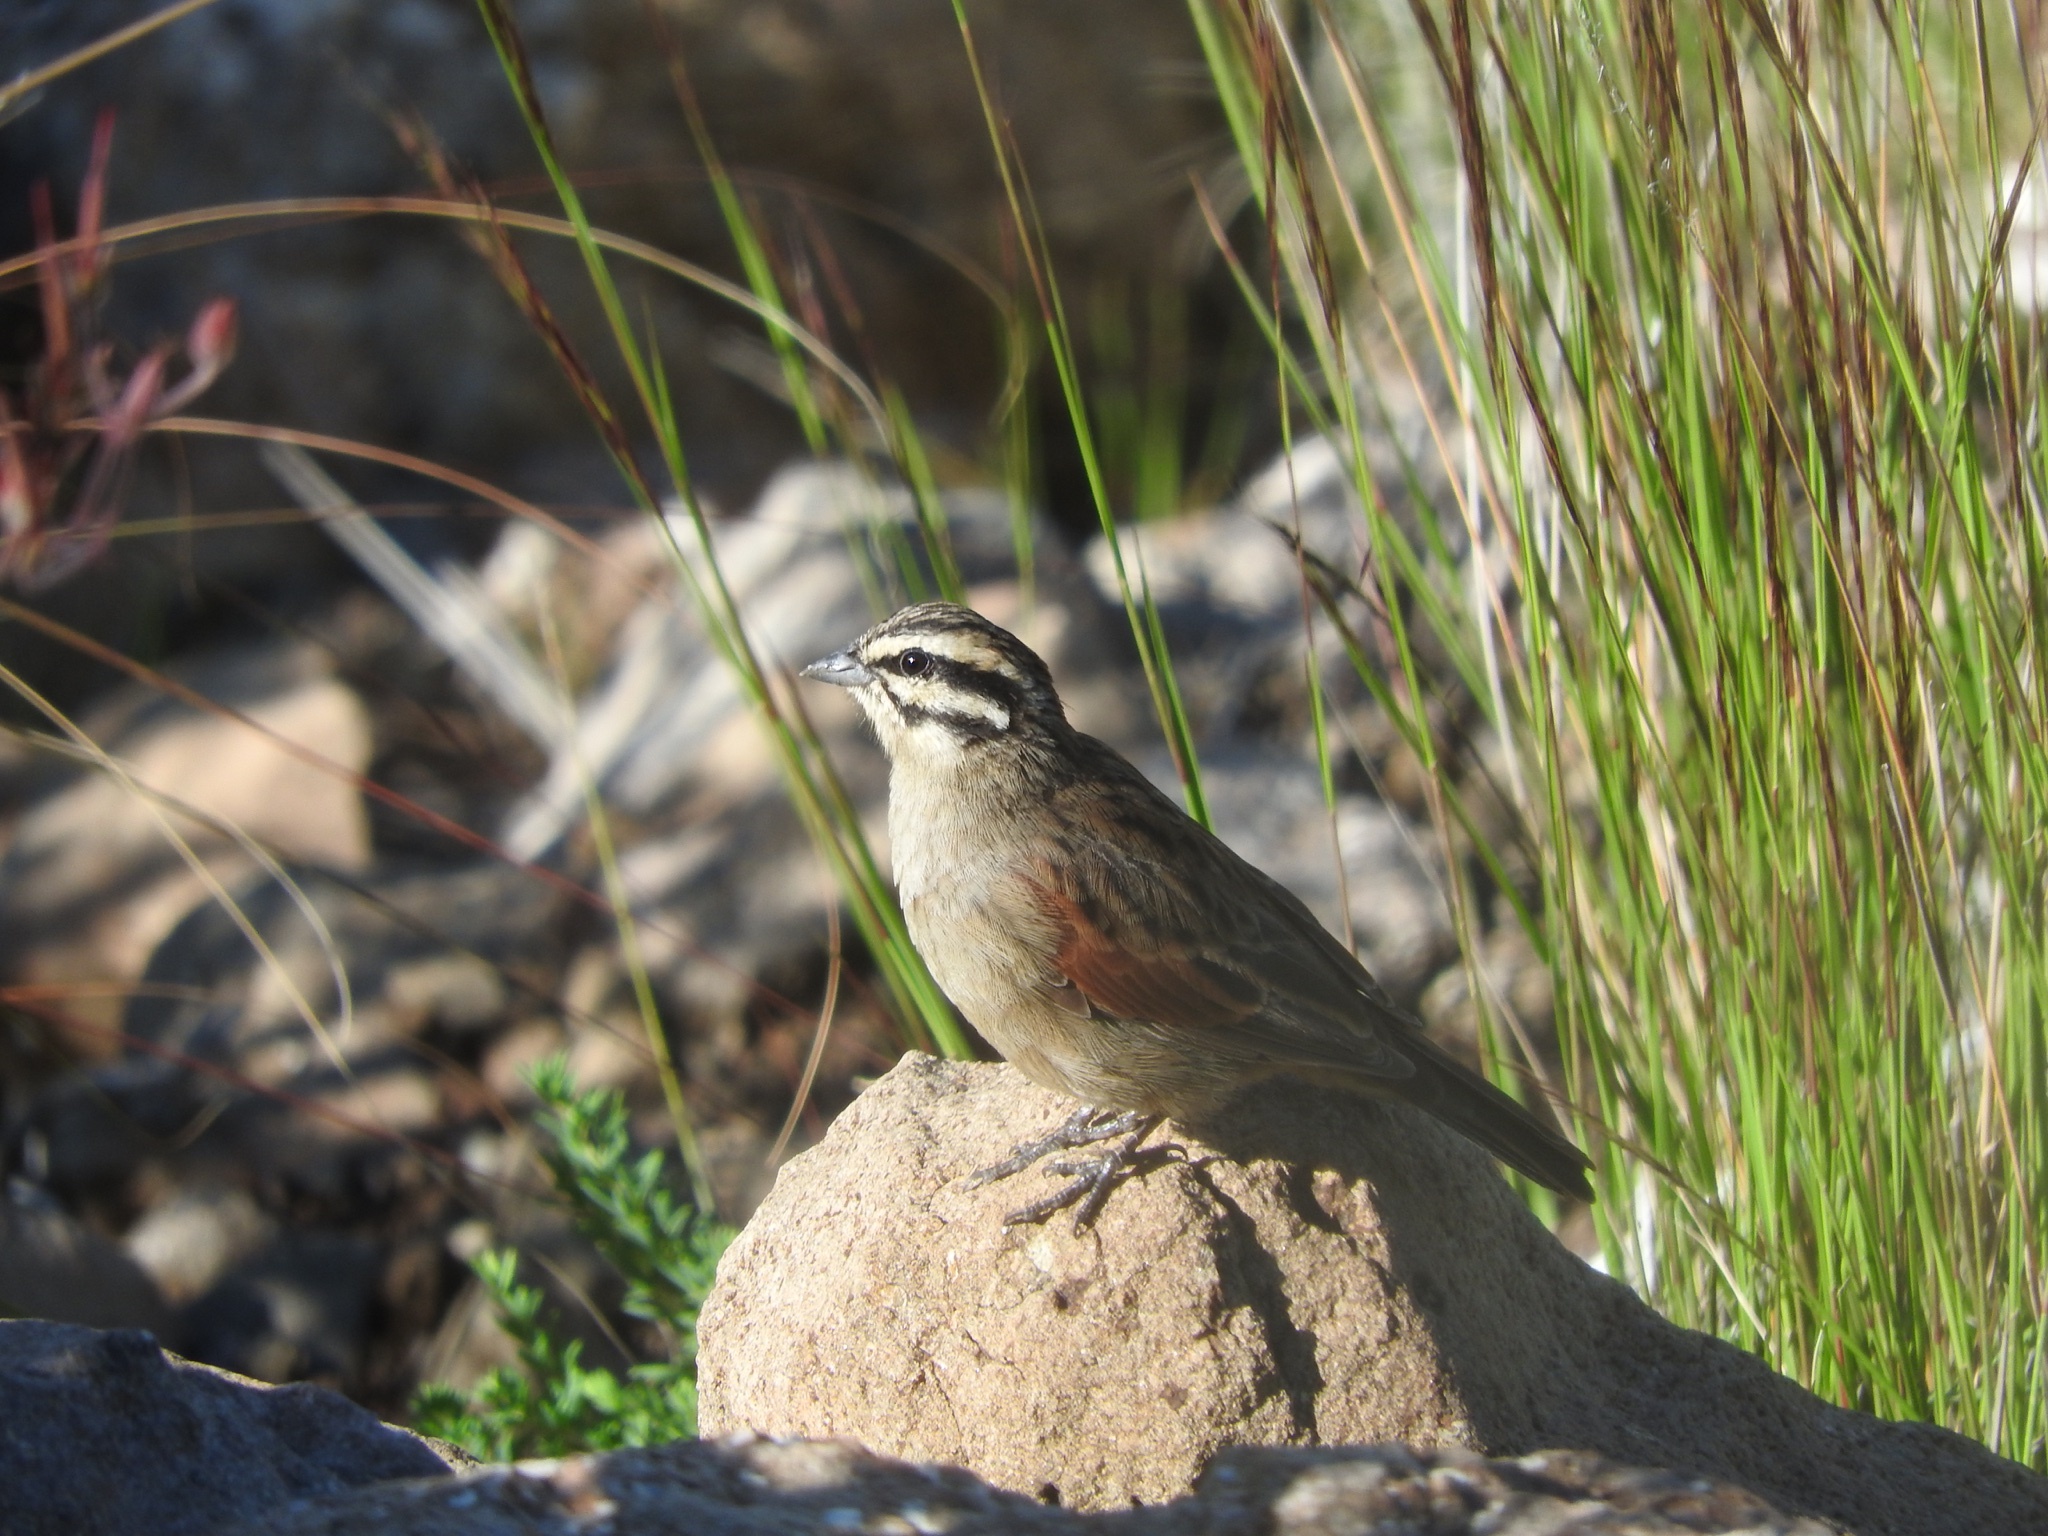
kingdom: Animalia
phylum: Chordata
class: Aves
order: Passeriformes
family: Emberizidae
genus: Emberiza
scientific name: Emberiza capensis
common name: Cape bunting
